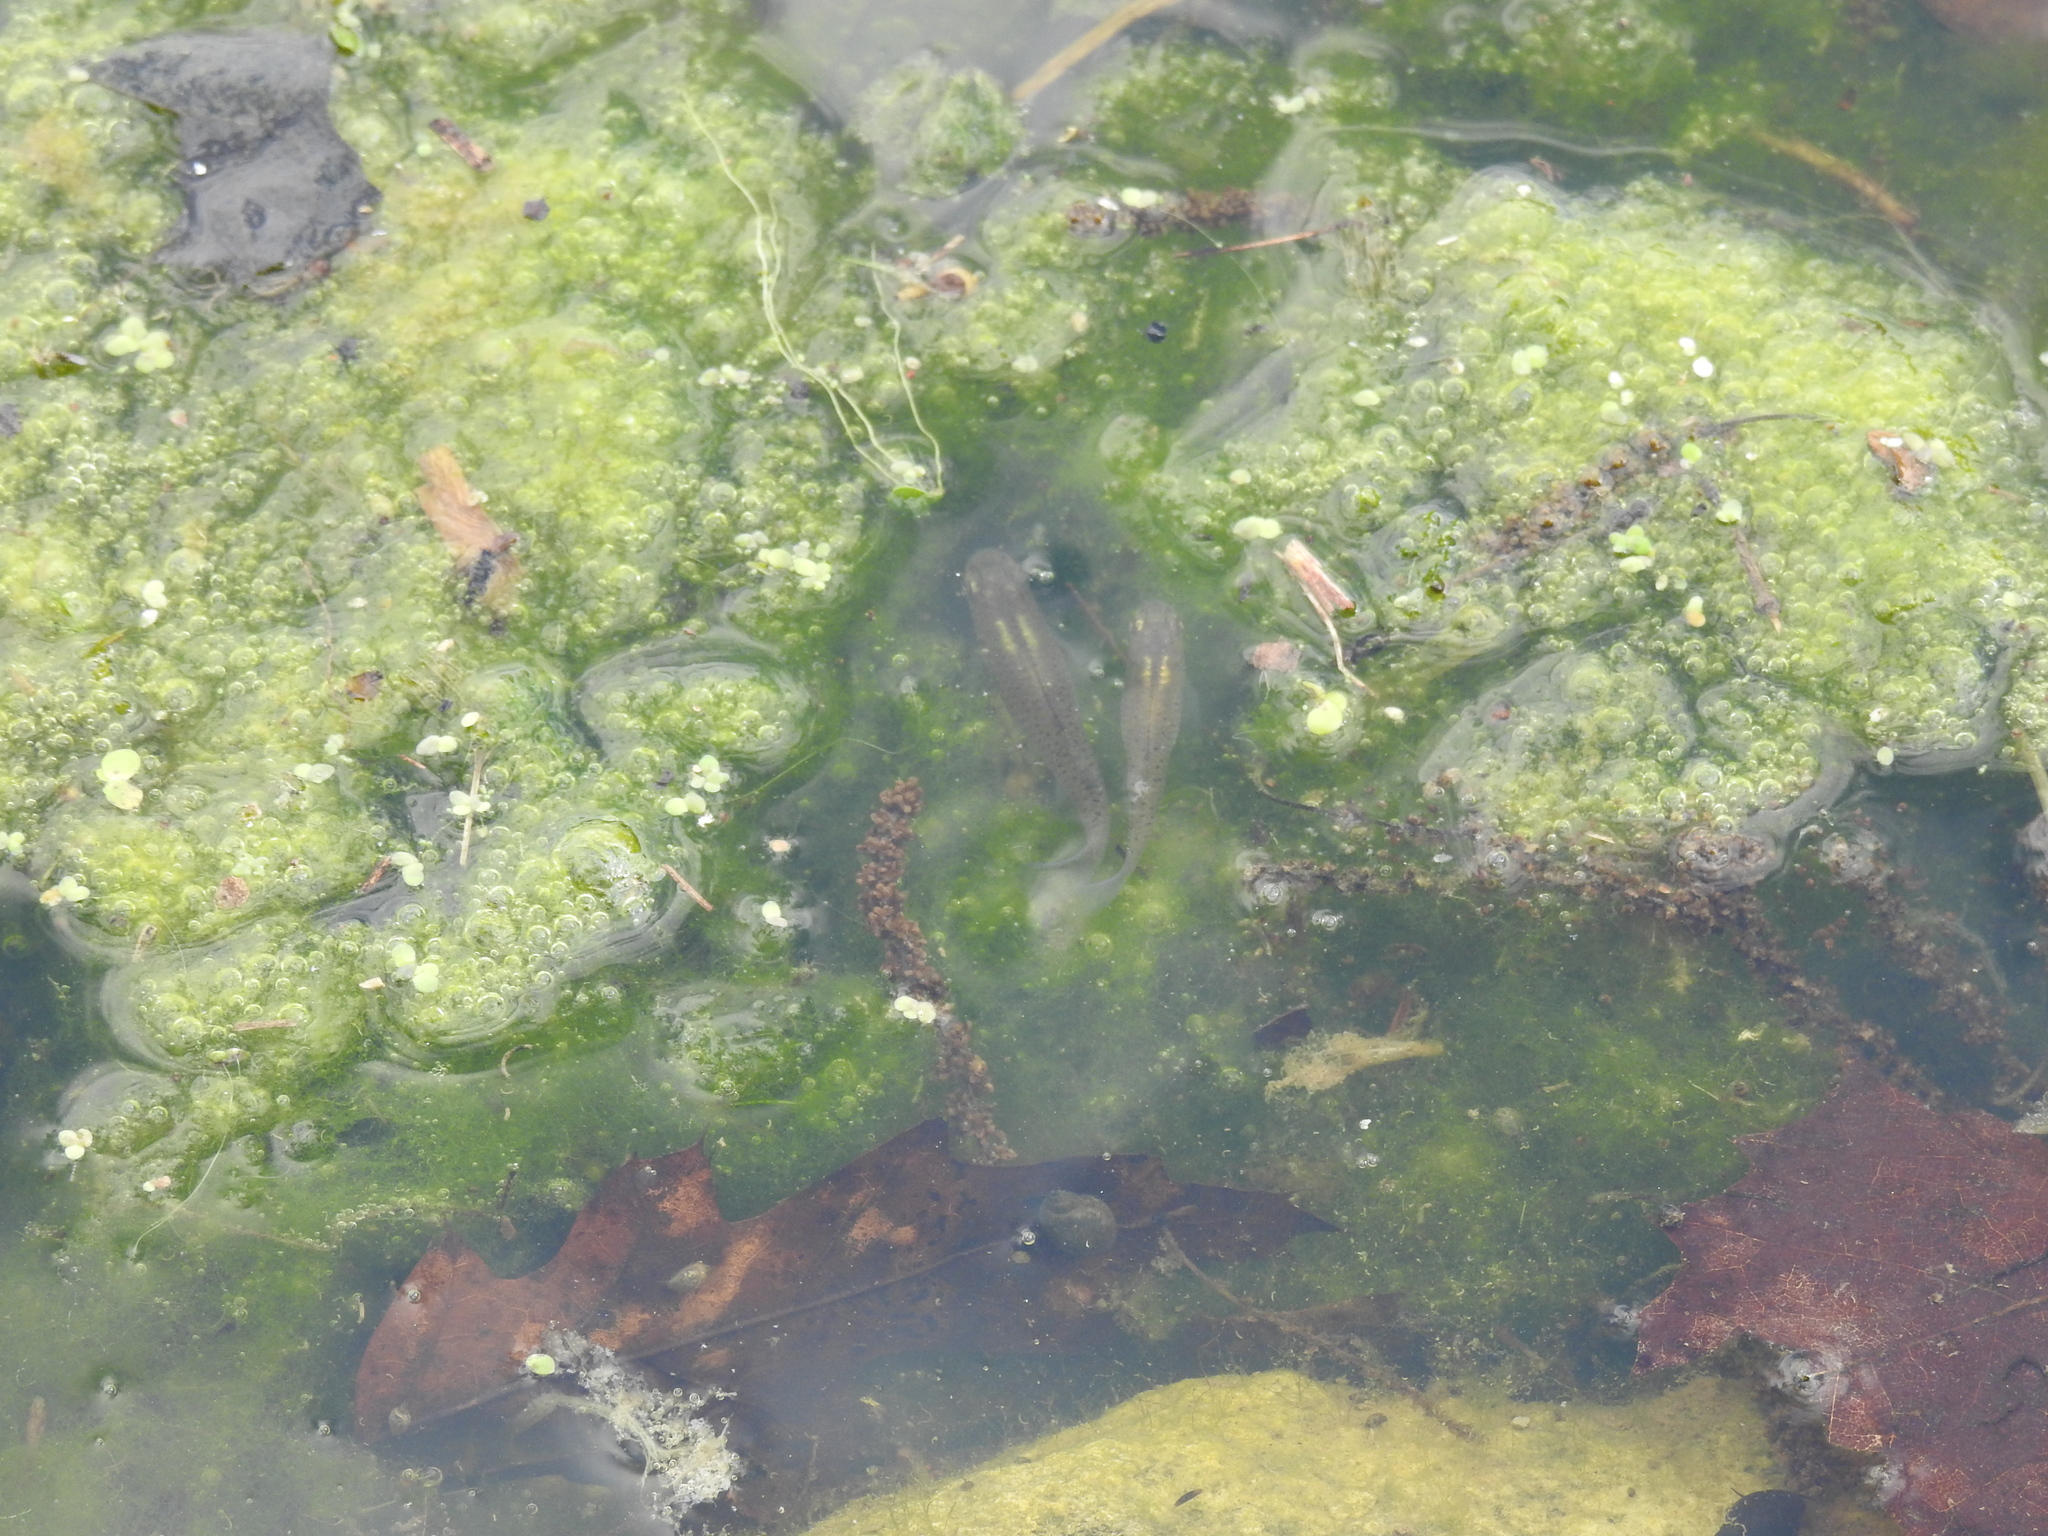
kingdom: Animalia
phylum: Chordata
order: Cyprinodontiformes
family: Poeciliidae
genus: Gambusia
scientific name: Gambusia affinis
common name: Mosquitofish
